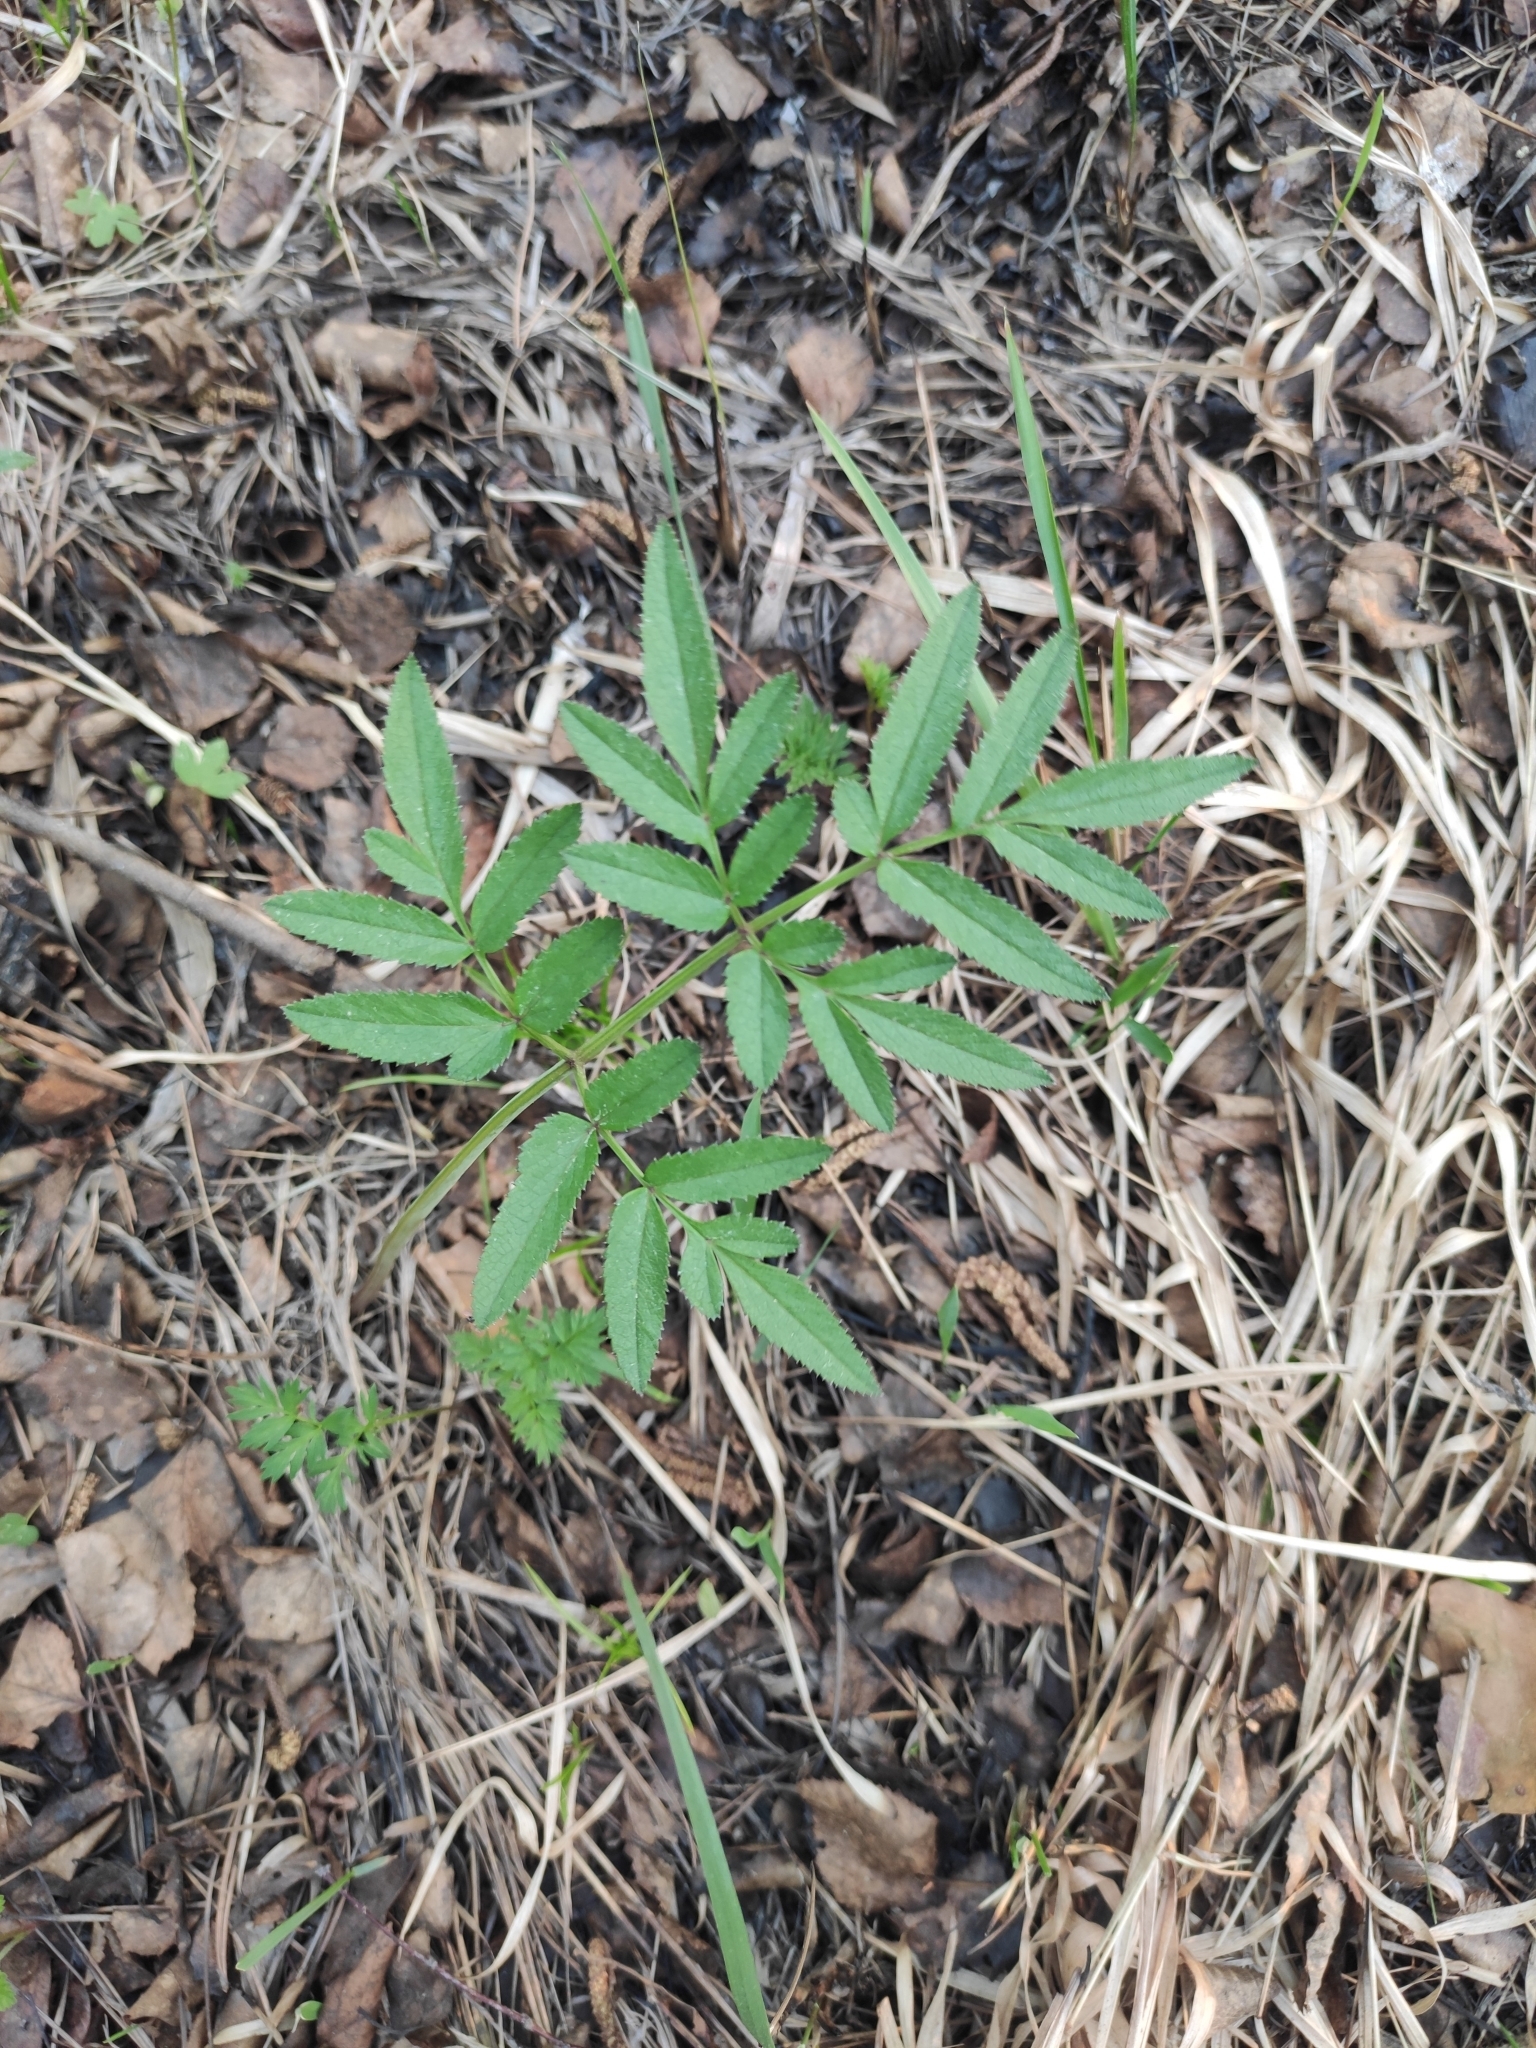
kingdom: Plantae
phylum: Tracheophyta
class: Magnoliopsida
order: Apiales
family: Apiaceae
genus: Angelica
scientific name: Angelica sylvestris
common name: Wild angelica
